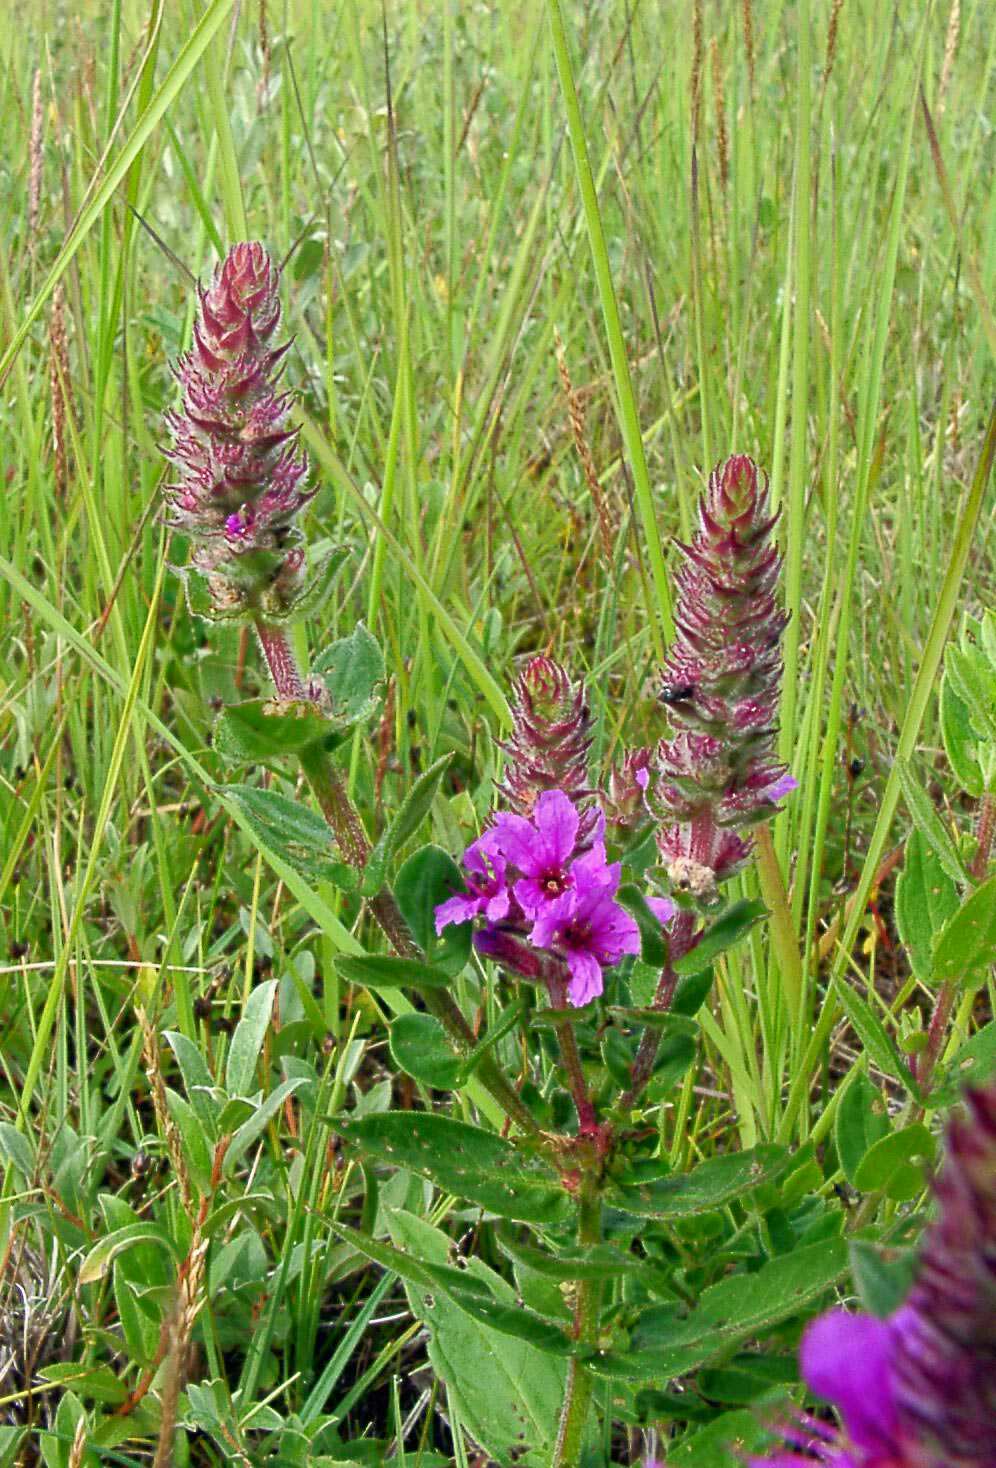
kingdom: Plantae
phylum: Tracheophyta
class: Magnoliopsida
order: Myrtales
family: Lythraceae
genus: Lythrum
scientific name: Lythrum salicaria
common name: Purple loosestrife
